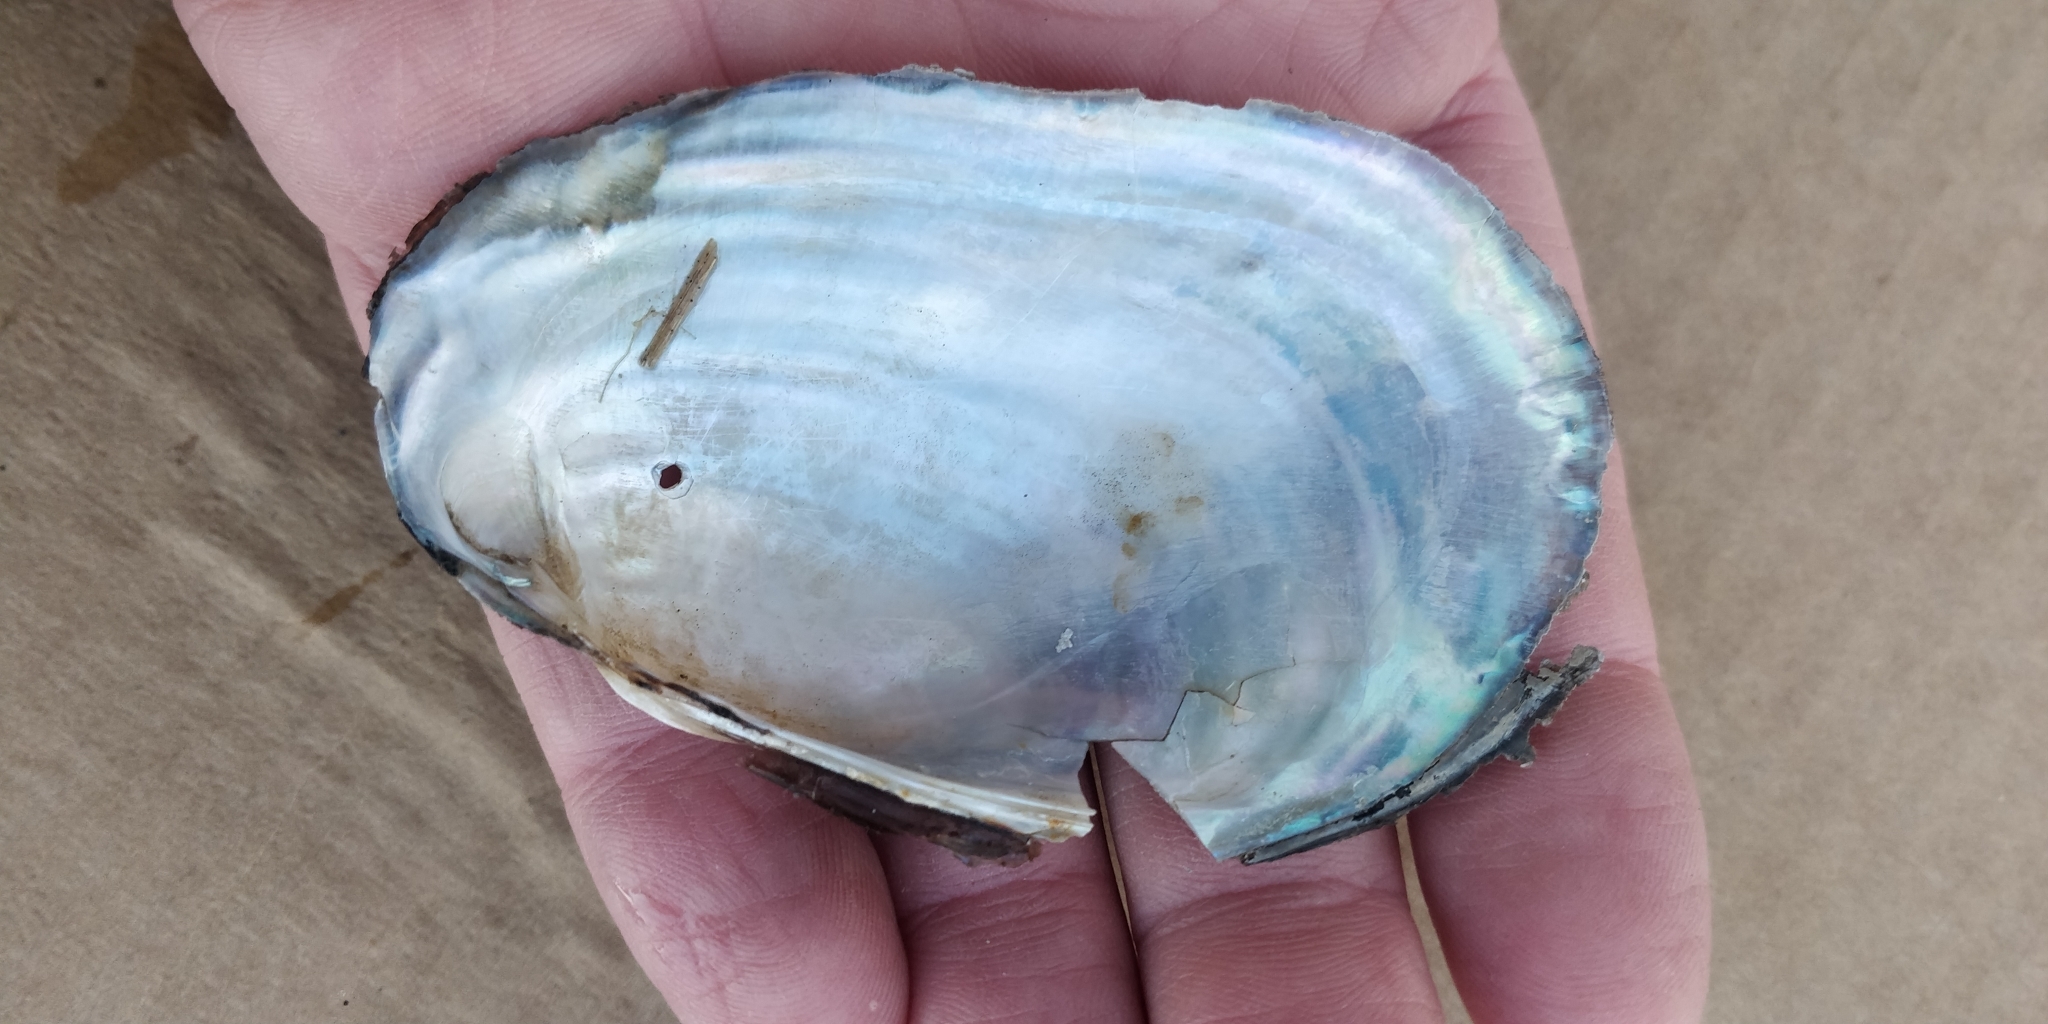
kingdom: Animalia
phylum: Mollusca
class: Bivalvia
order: Unionida
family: Unionidae
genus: Potamilus
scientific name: Potamilus fragilis
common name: Fragile papershell
